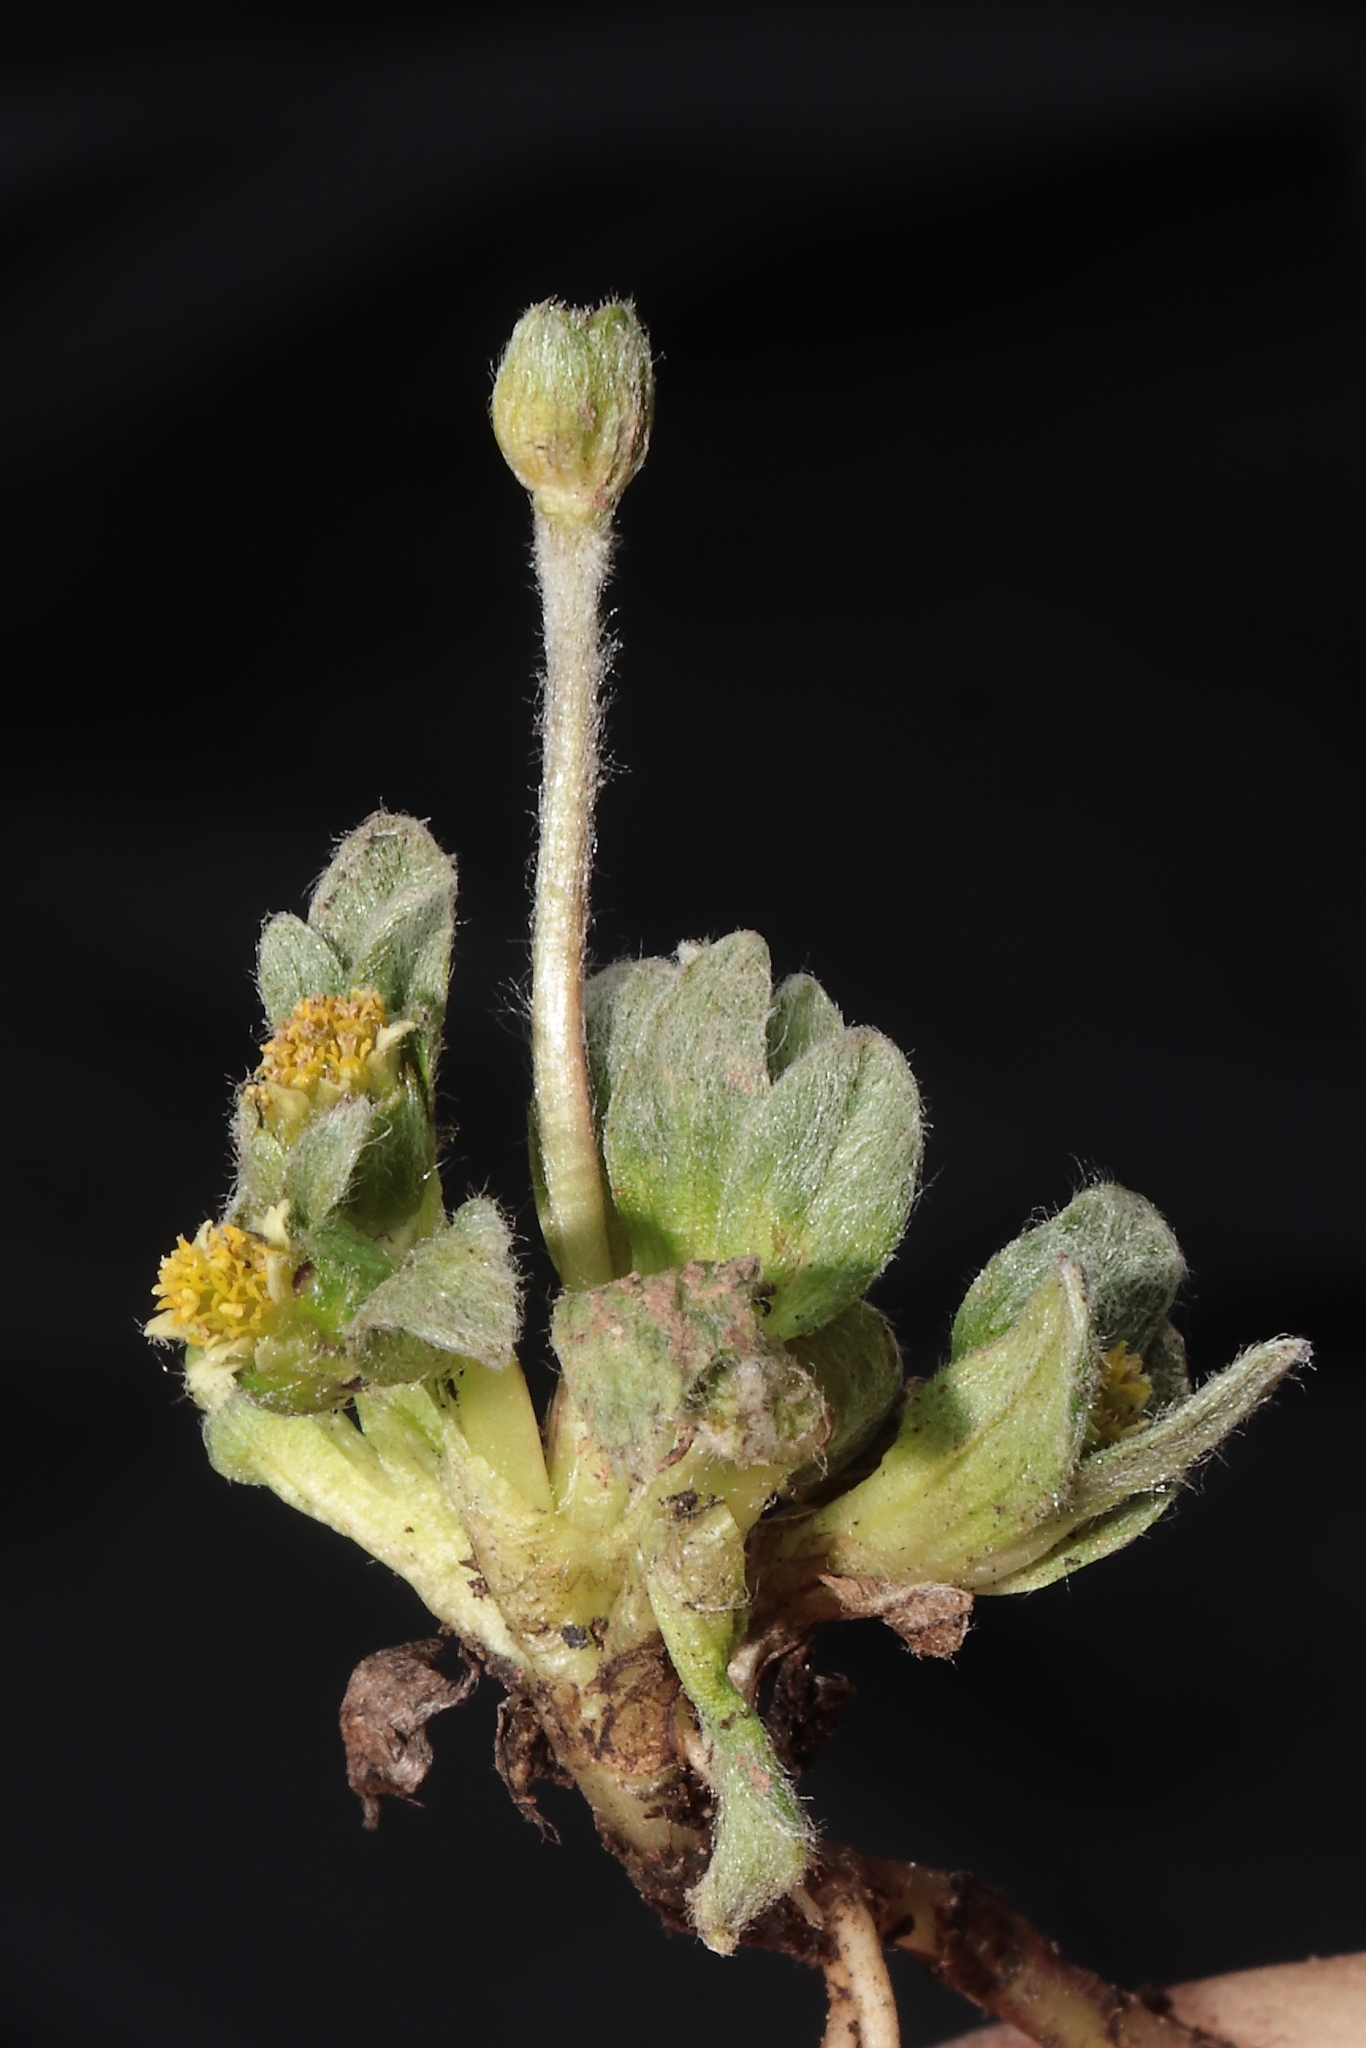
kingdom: Plantae
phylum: Tracheophyta
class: Magnoliopsida
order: Asterales
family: Asteraceae
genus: Aphanactis
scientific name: Aphanactis villosa
